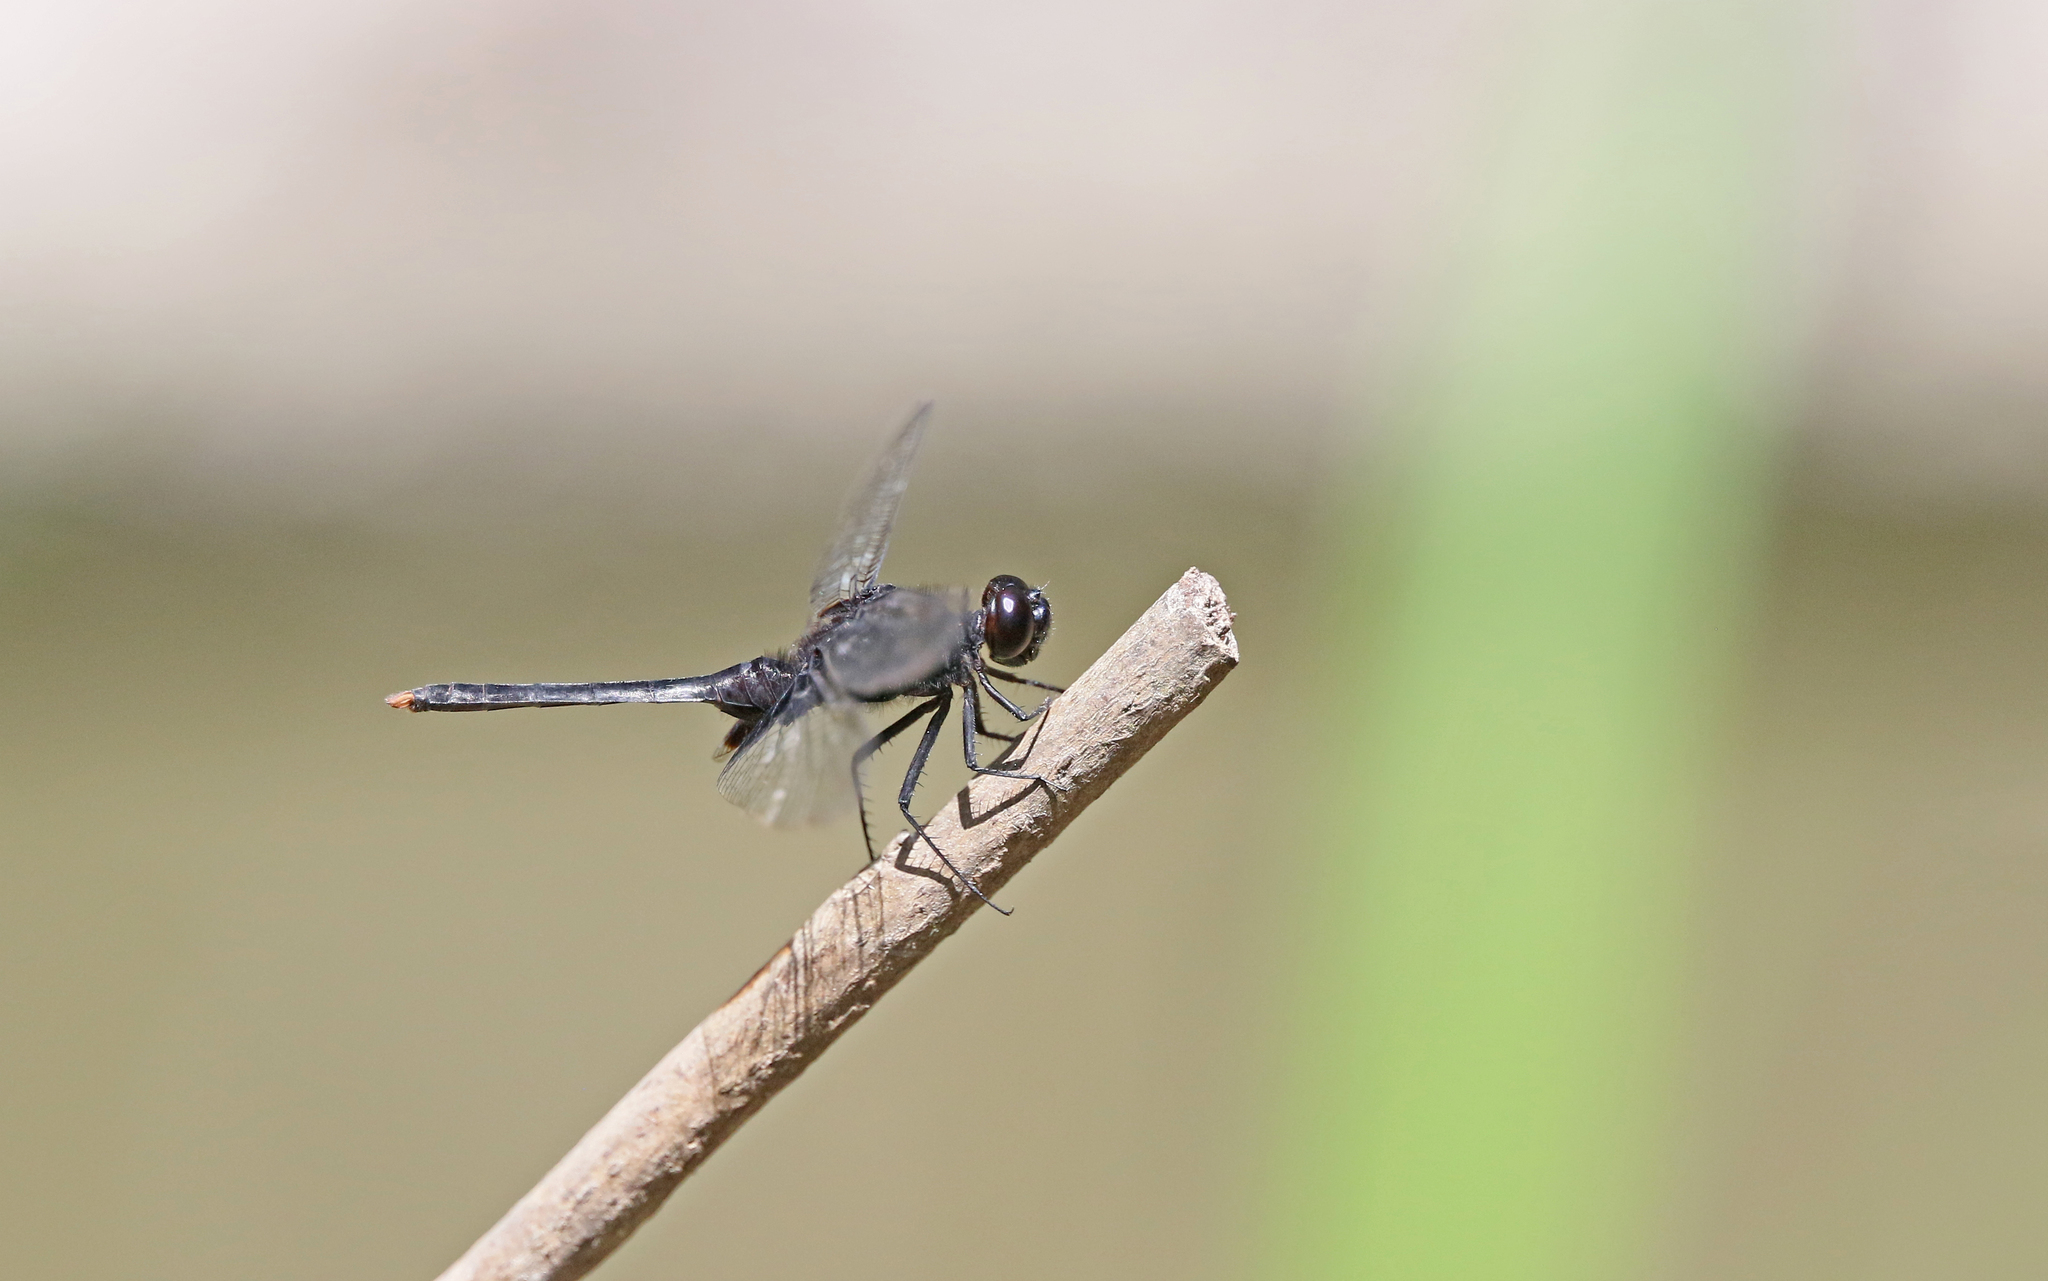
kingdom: Animalia
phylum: Arthropoda
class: Insecta
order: Odonata
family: Libellulidae
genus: Erythemis
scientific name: Erythemis attala
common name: Black pondhawk
